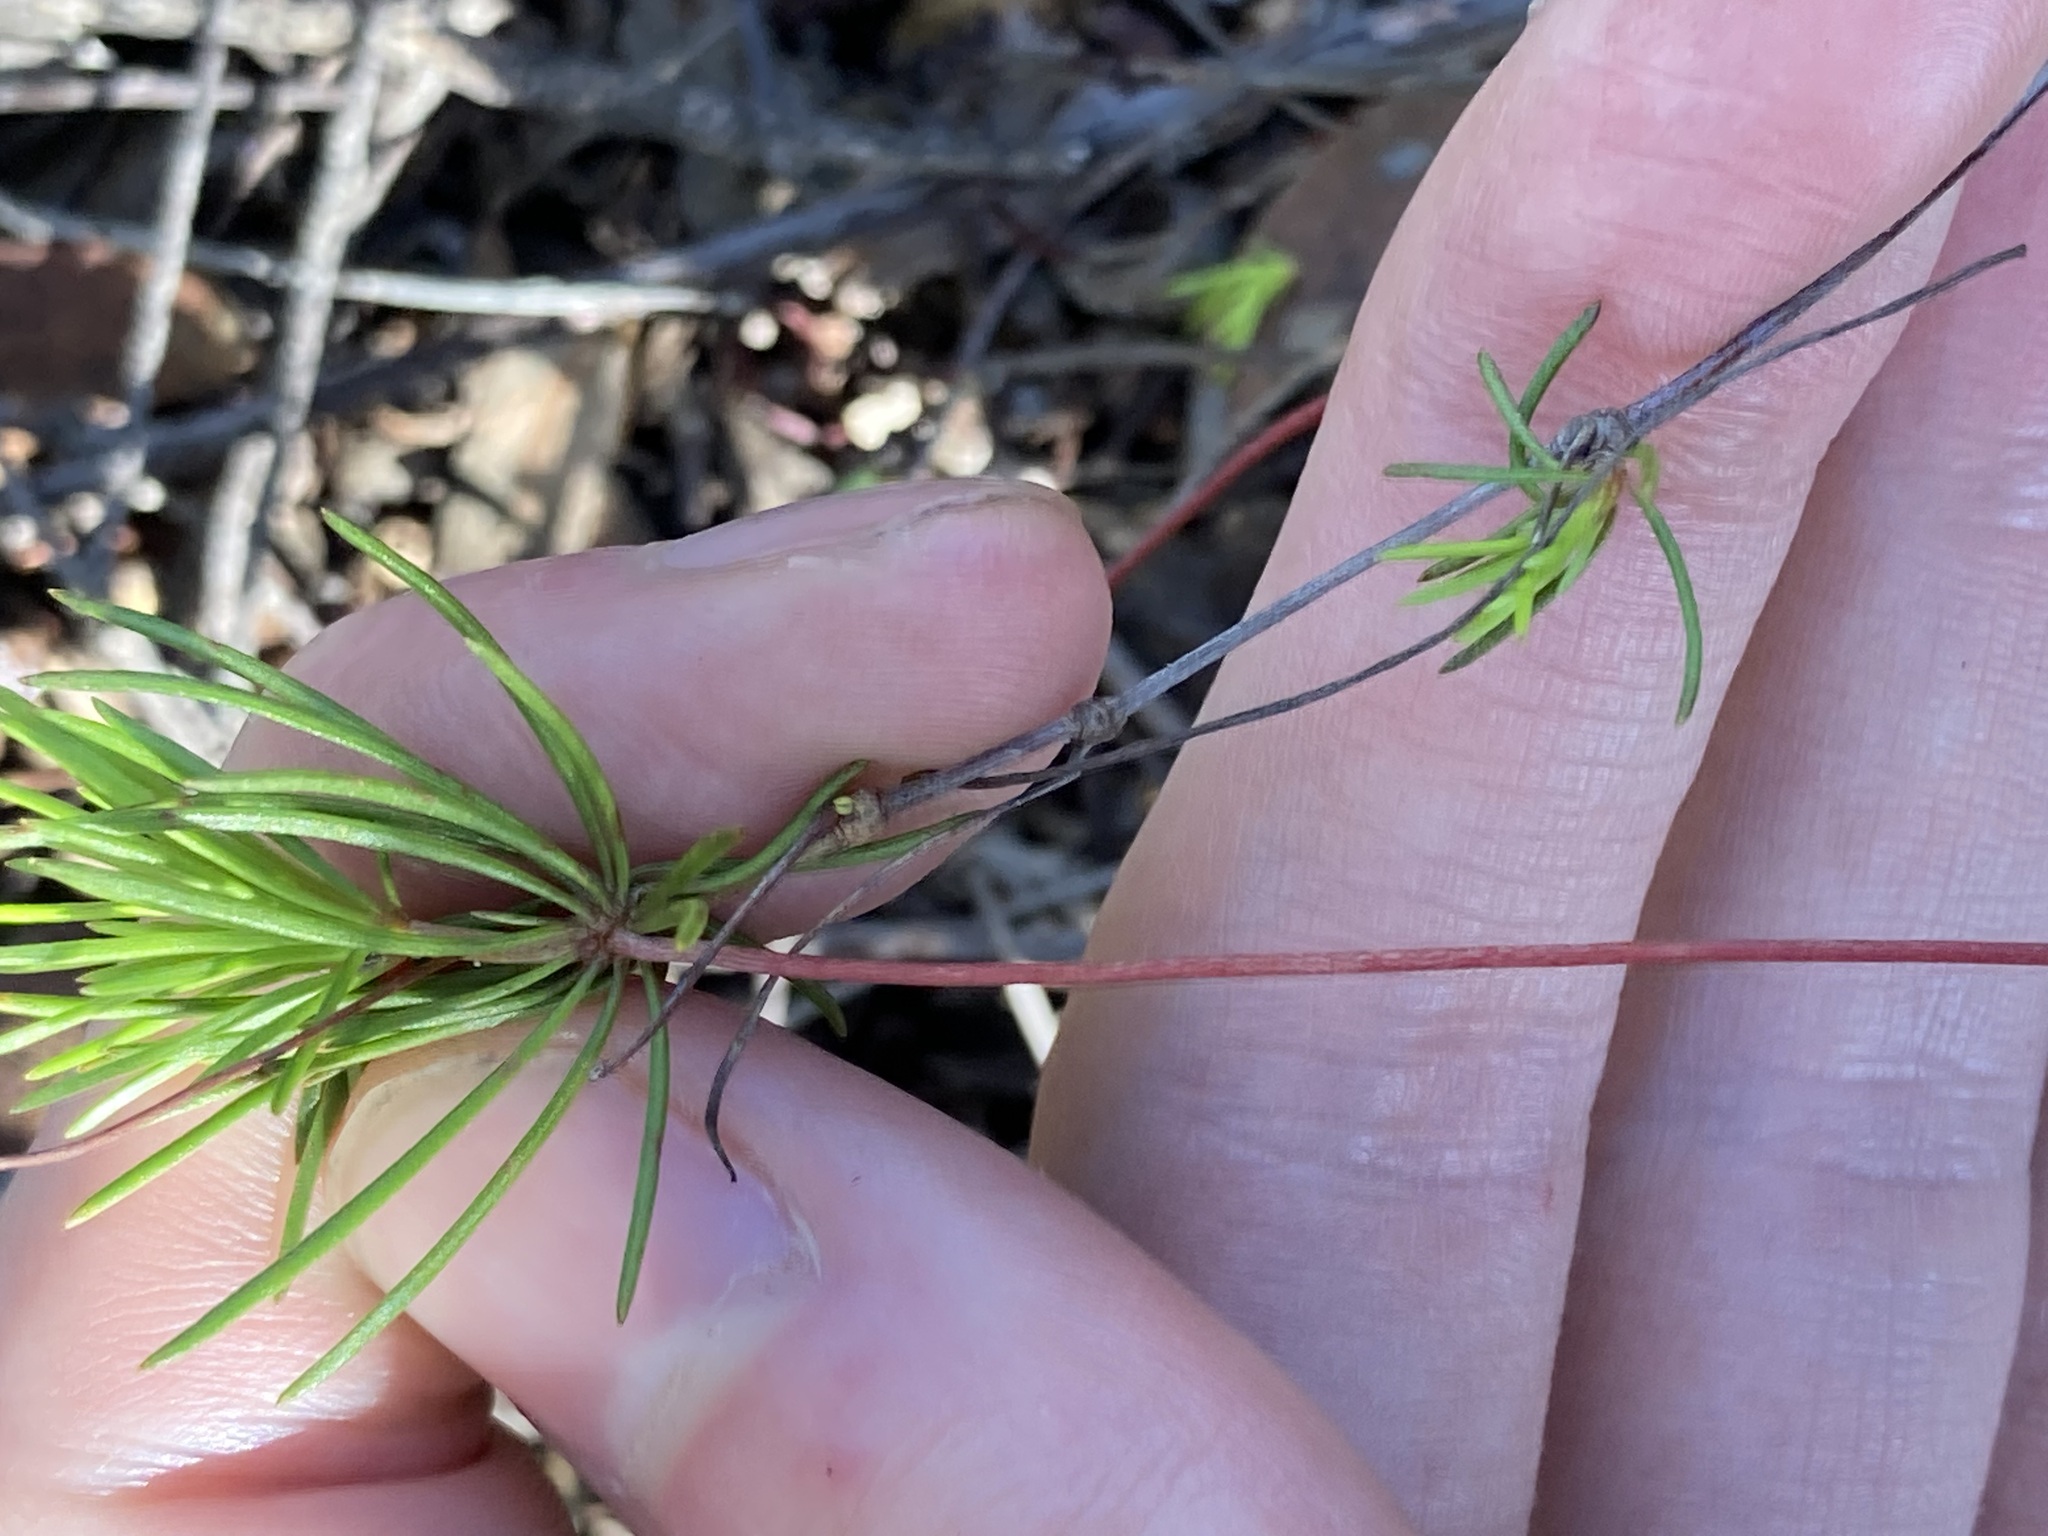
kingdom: Plantae
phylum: Tracheophyta
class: Magnoliopsida
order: Asterales
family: Stylidiaceae
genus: Stylidium
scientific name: Stylidium flagellum
